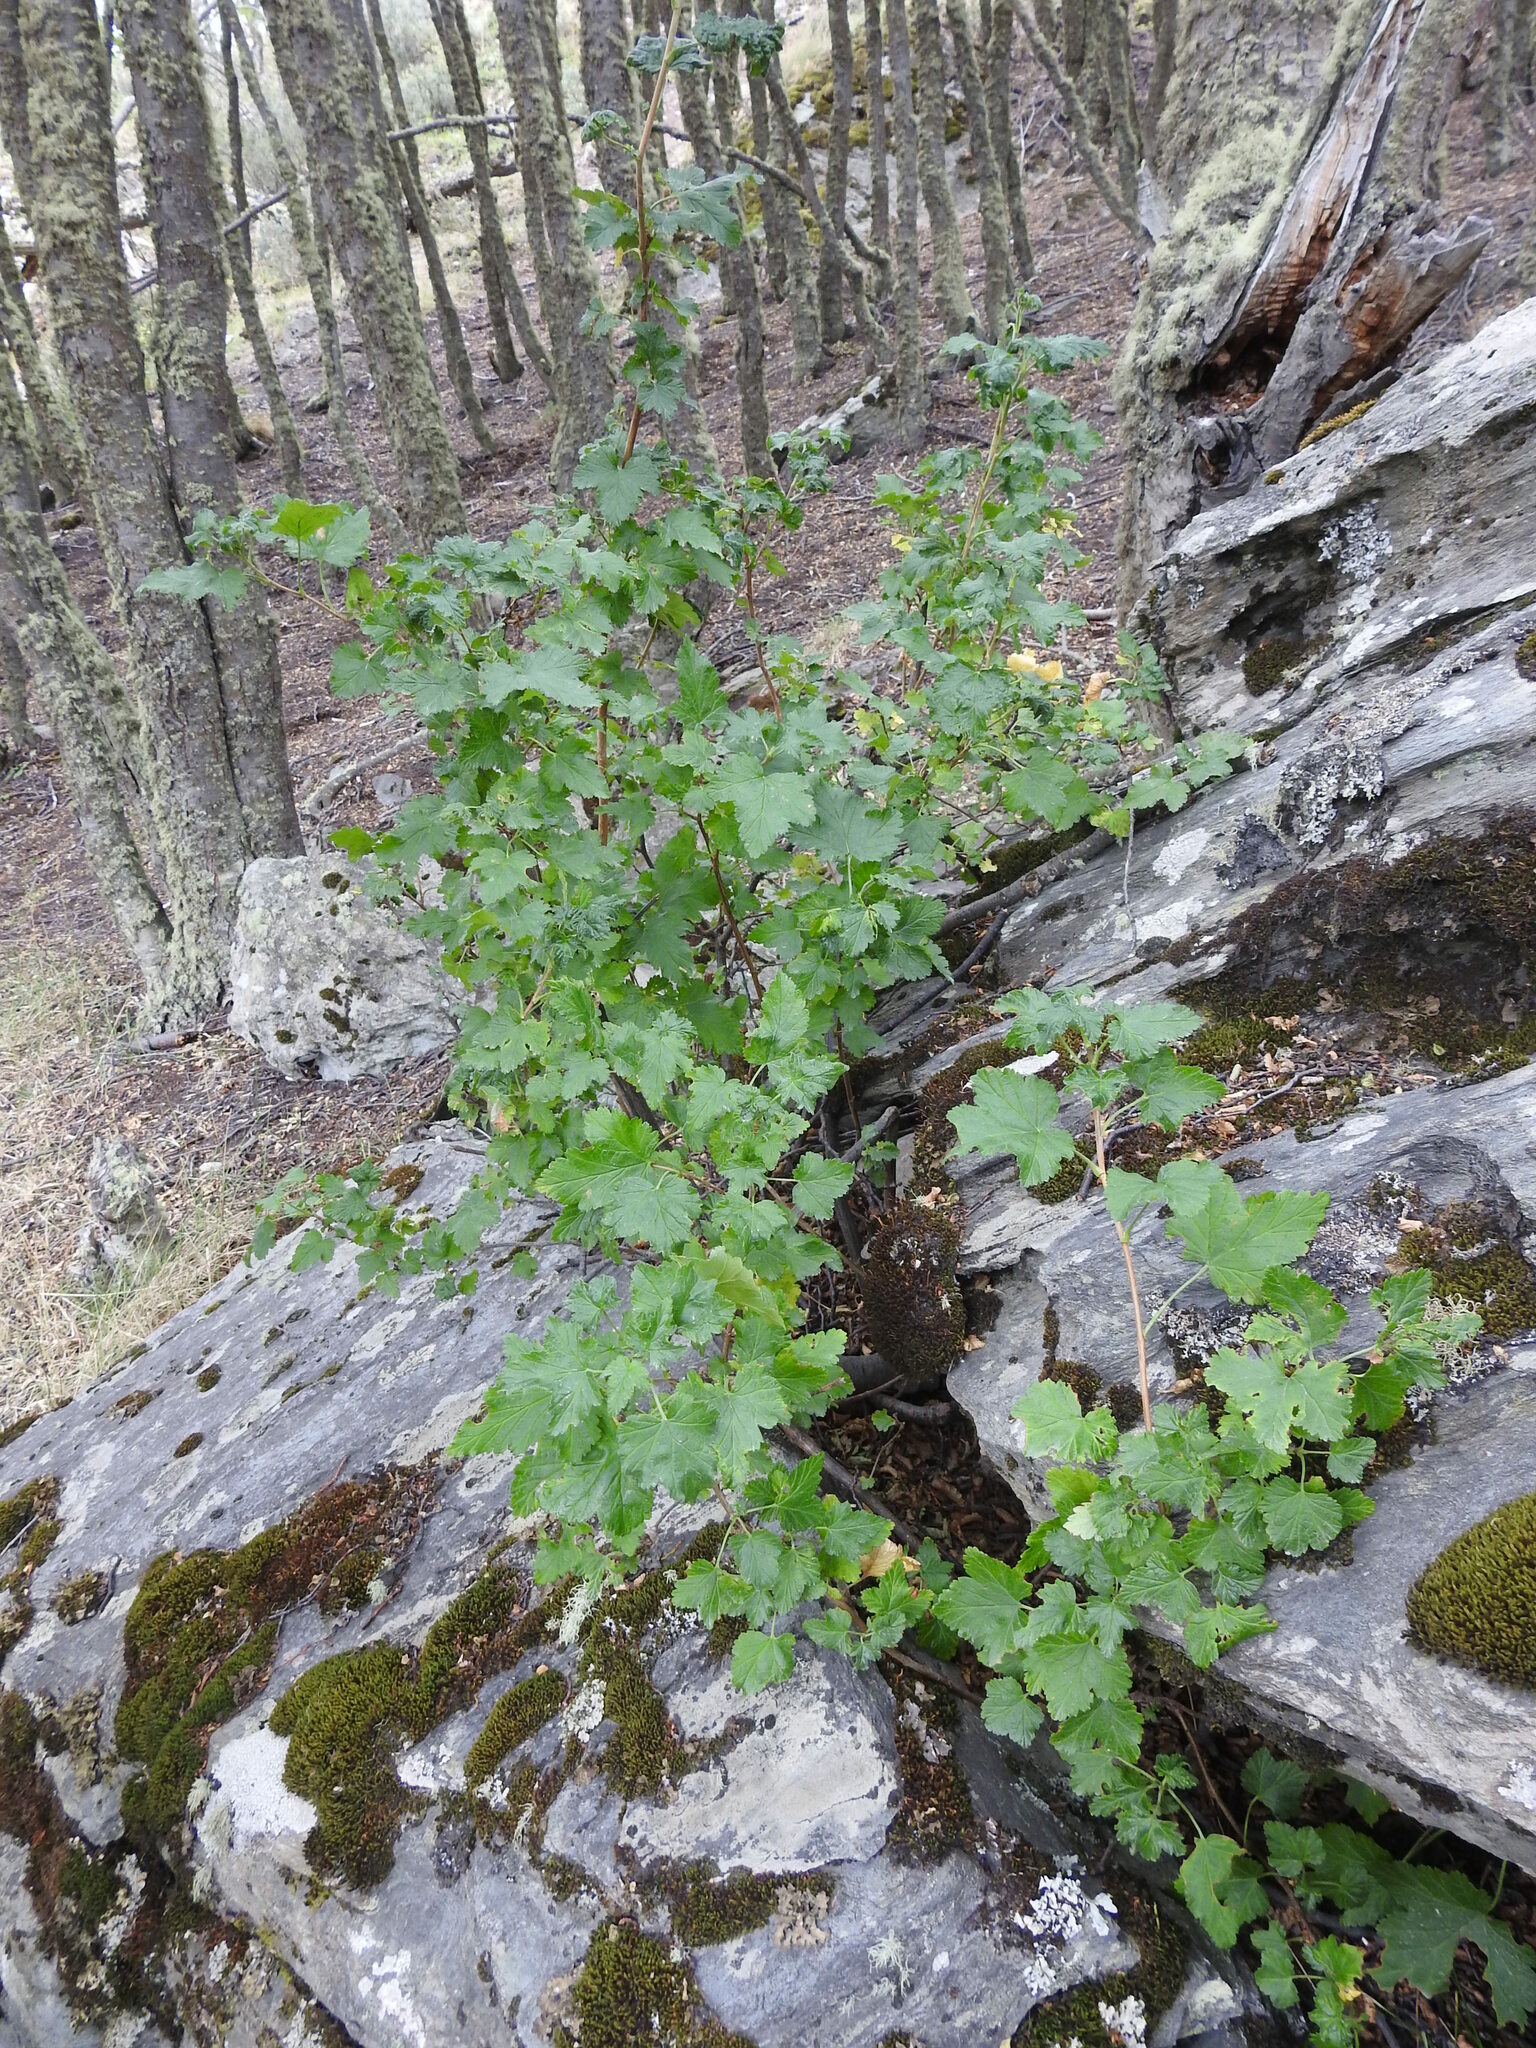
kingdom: Plantae
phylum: Tracheophyta
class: Magnoliopsida
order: Saxifragales
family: Grossulariaceae
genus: Ribes
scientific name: Ribes magellanicum
